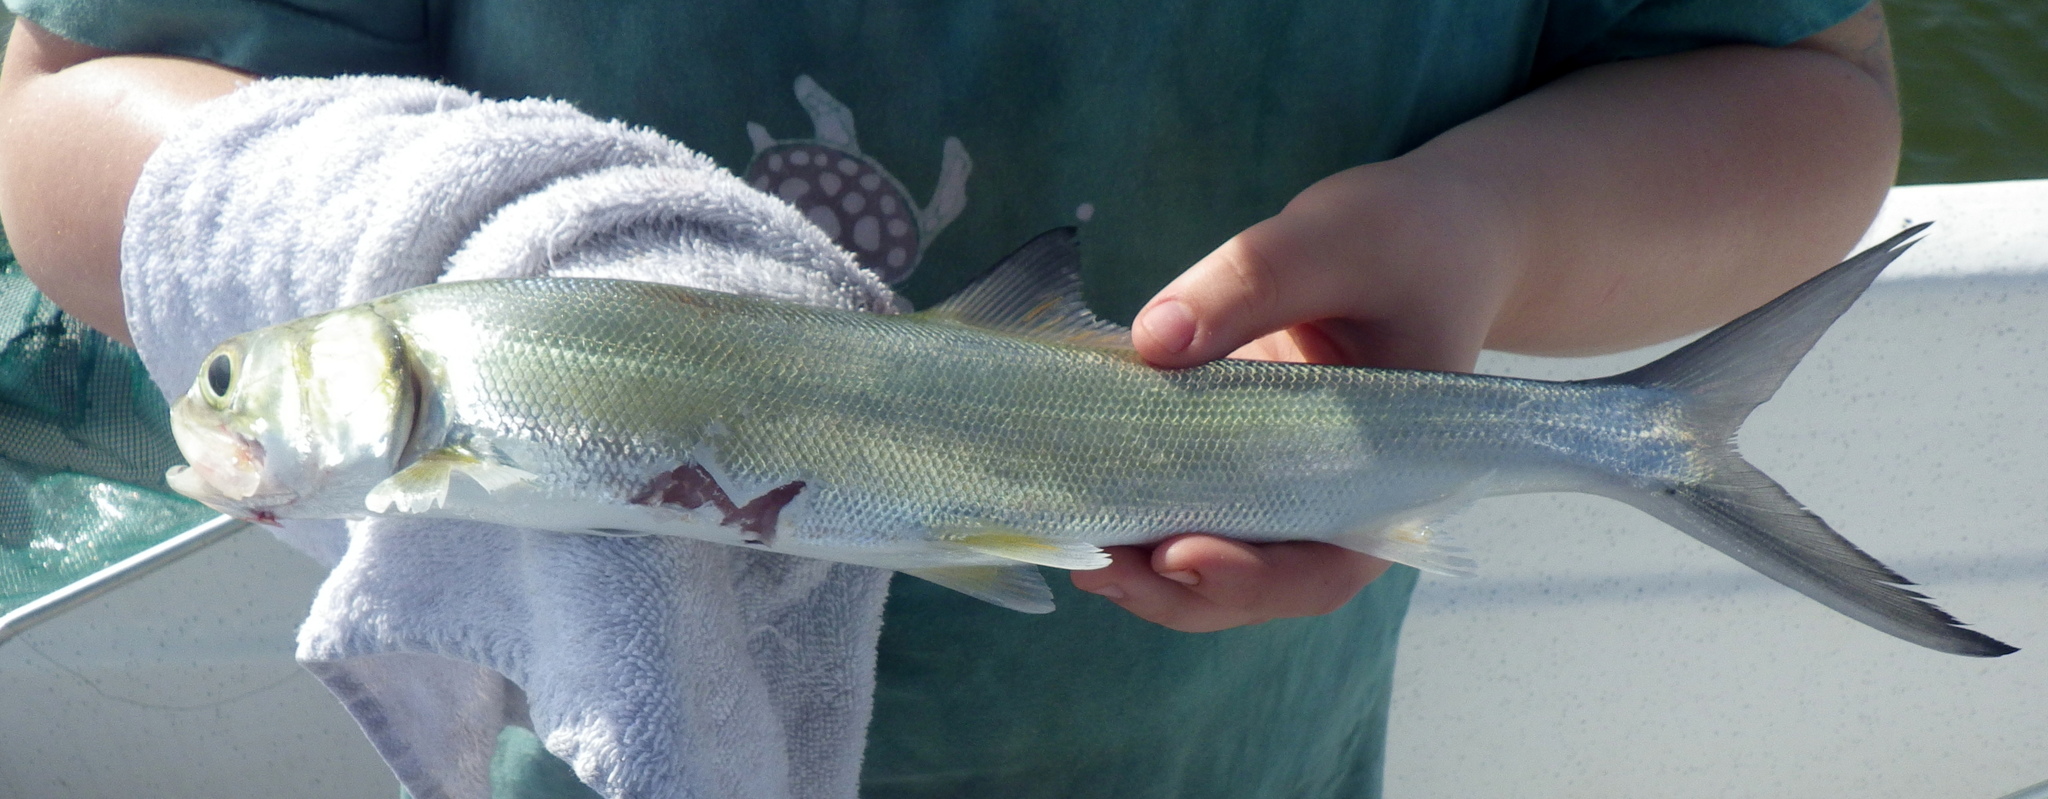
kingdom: Animalia
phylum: Chordata
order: Elopiformes
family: Elopidae
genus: Elops
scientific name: Elops saurus
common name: Ladyfish
